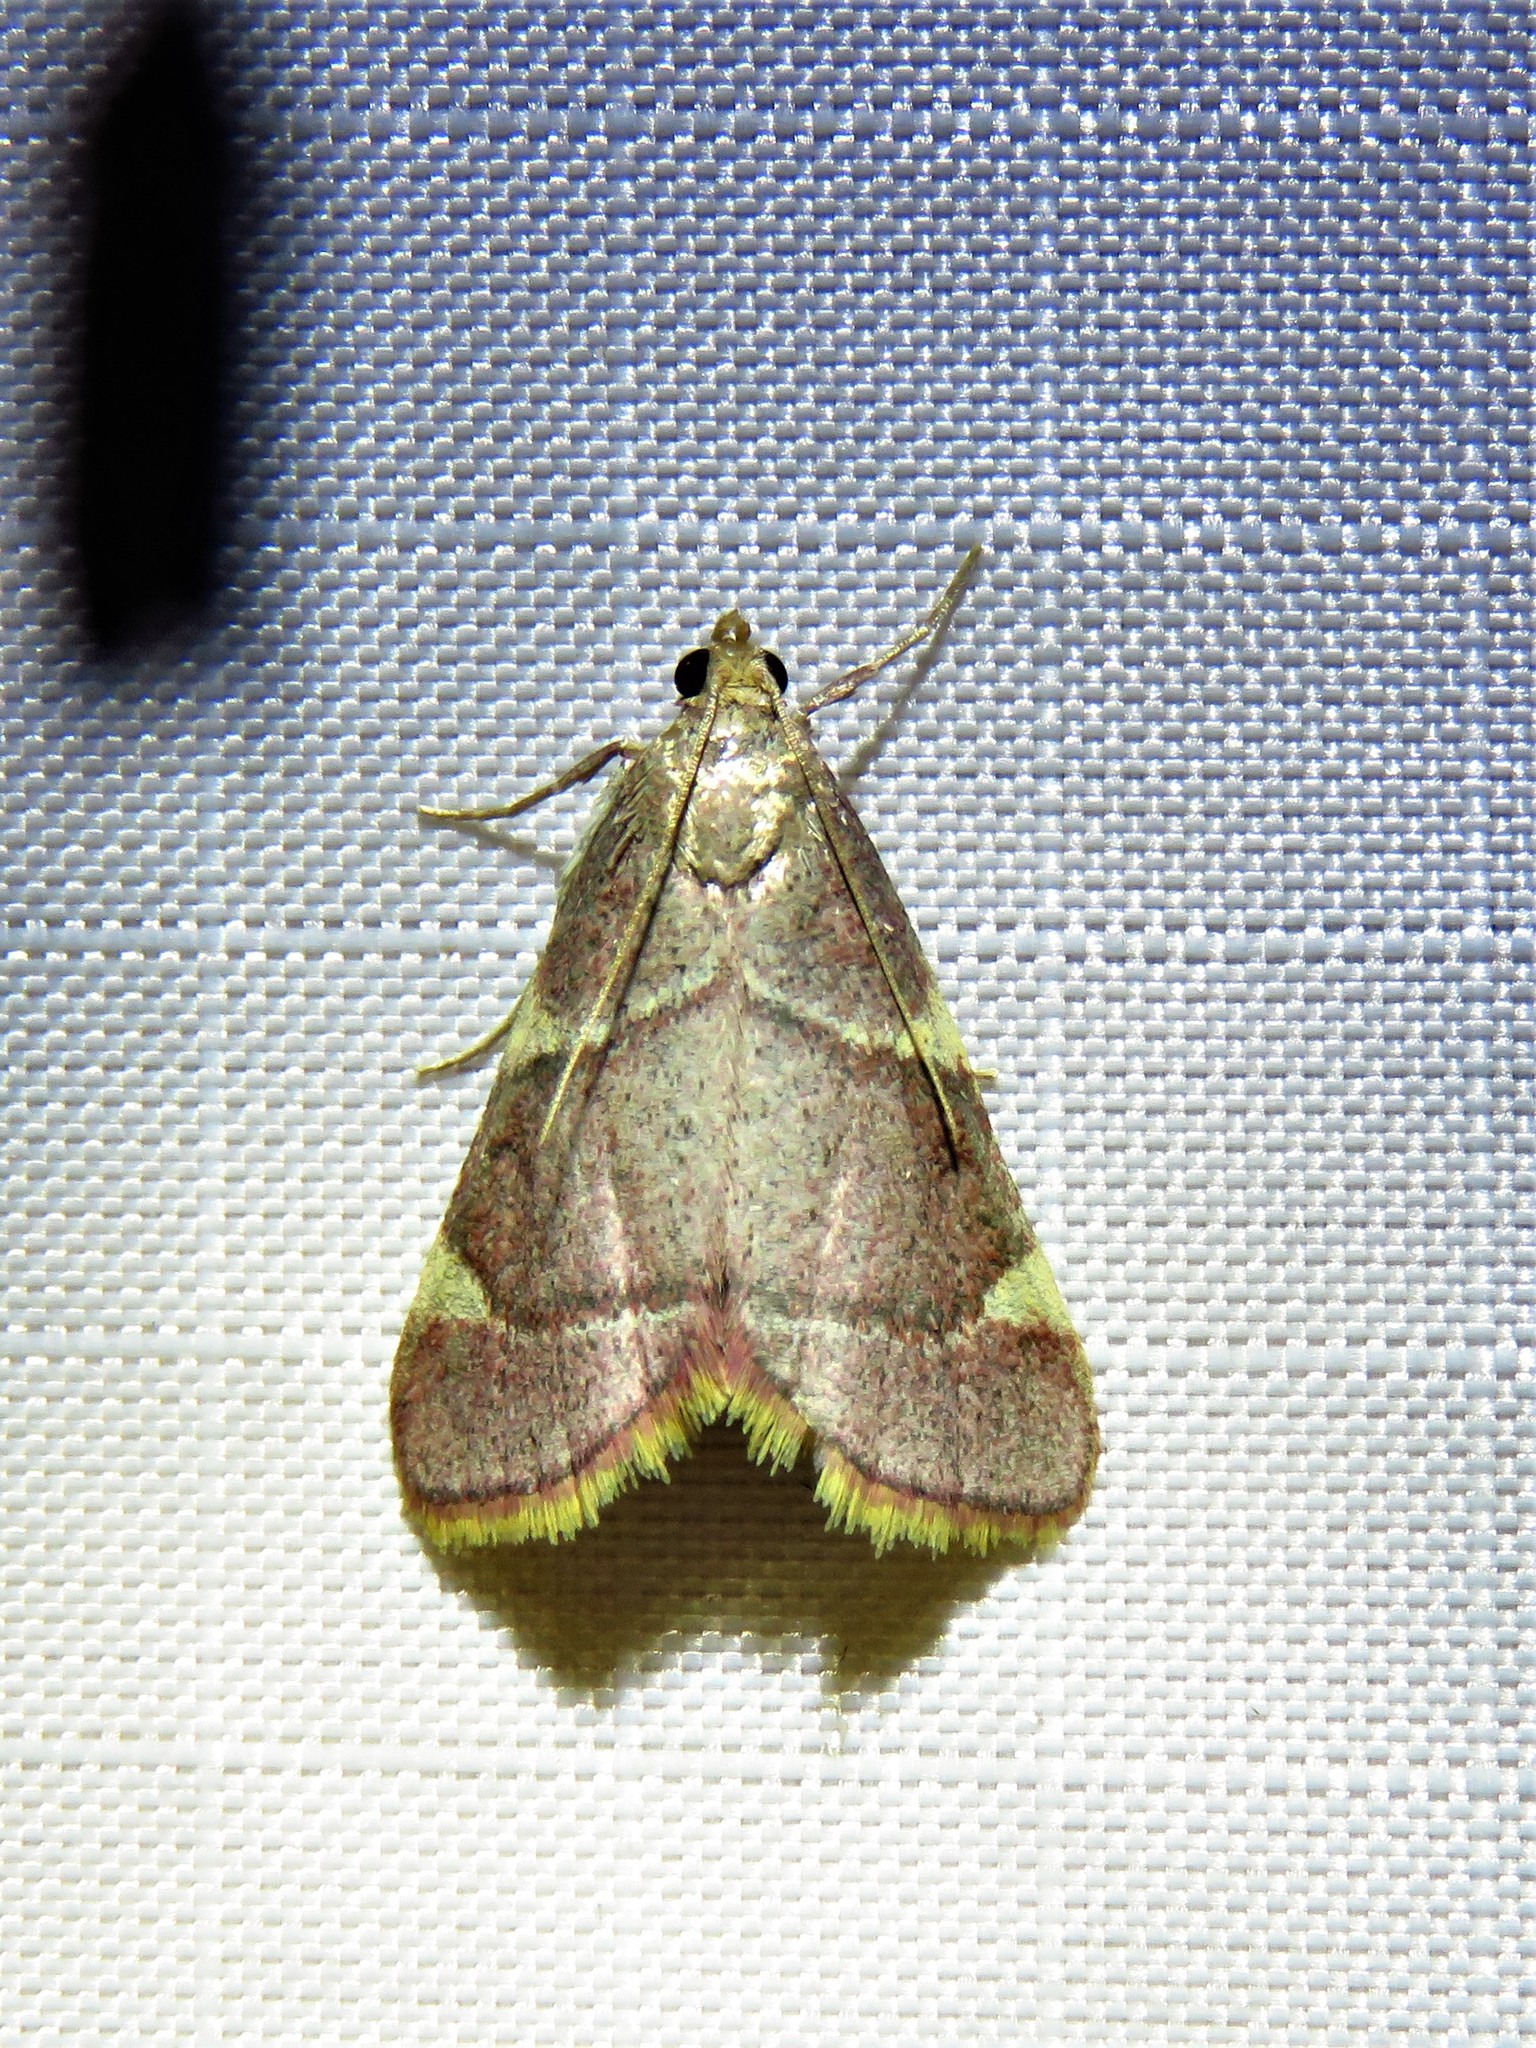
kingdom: Animalia
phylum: Arthropoda
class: Insecta
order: Lepidoptera
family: Pyralidae
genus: Hypsopygia
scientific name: Hypsopygia olinalis
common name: Yellow-fringed dolichomia moth
